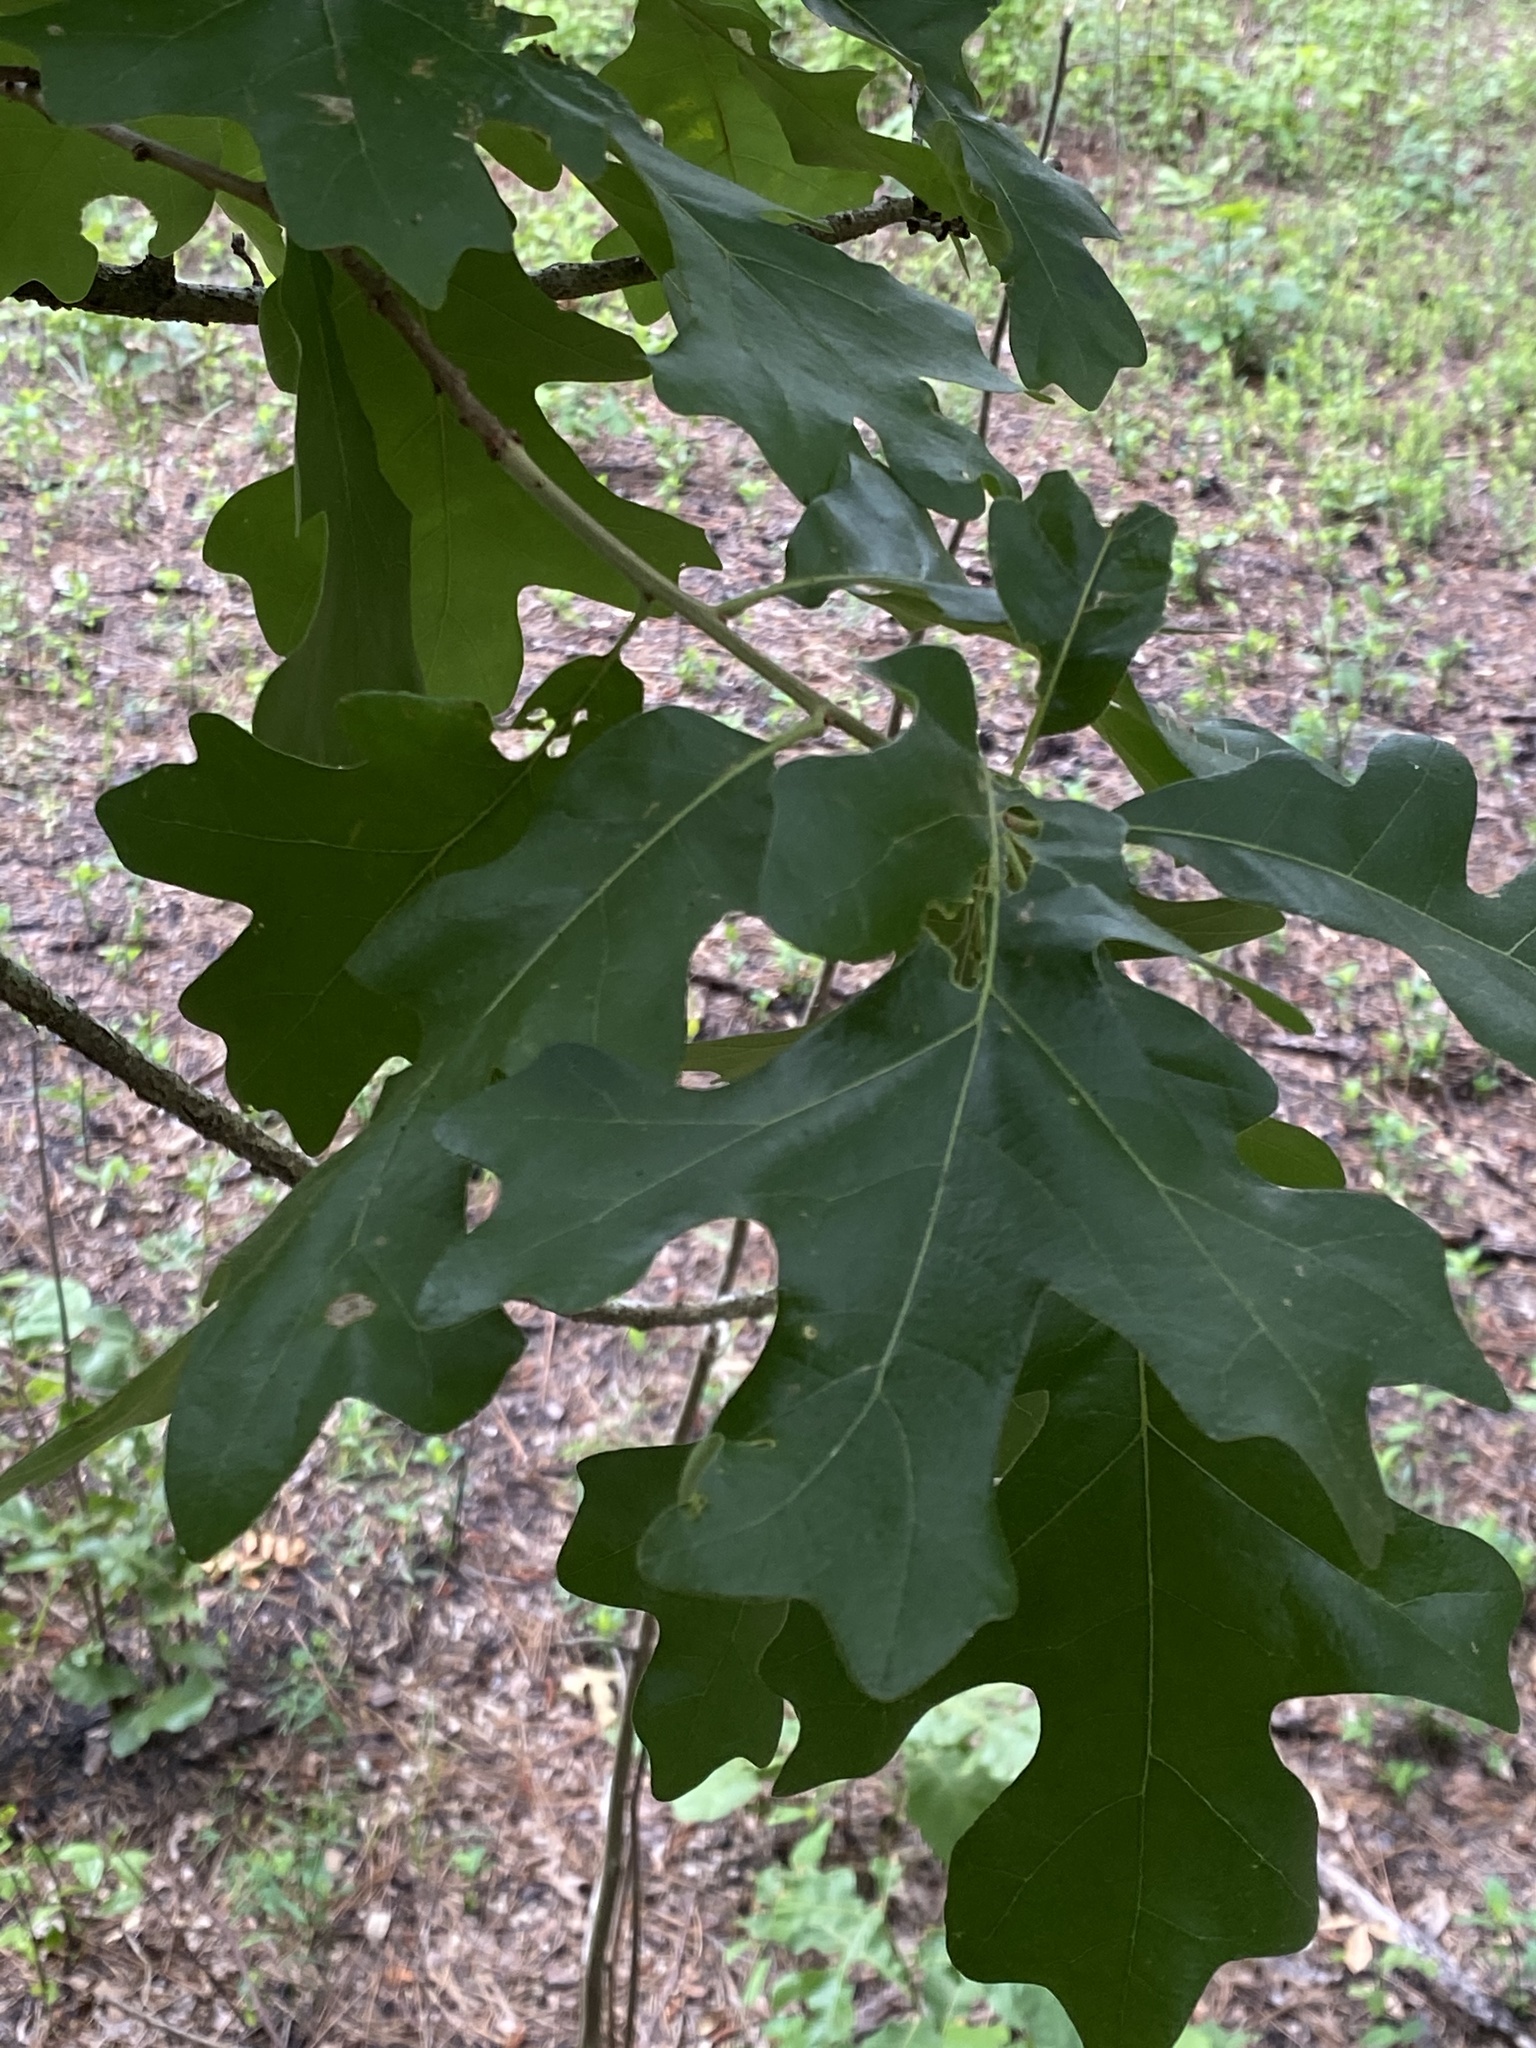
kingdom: Plantae
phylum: Tracheophyta
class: Magnoliopsida
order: Fagales
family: Fagaceae
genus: Quercus
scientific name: Quercus stellata
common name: Post oak
